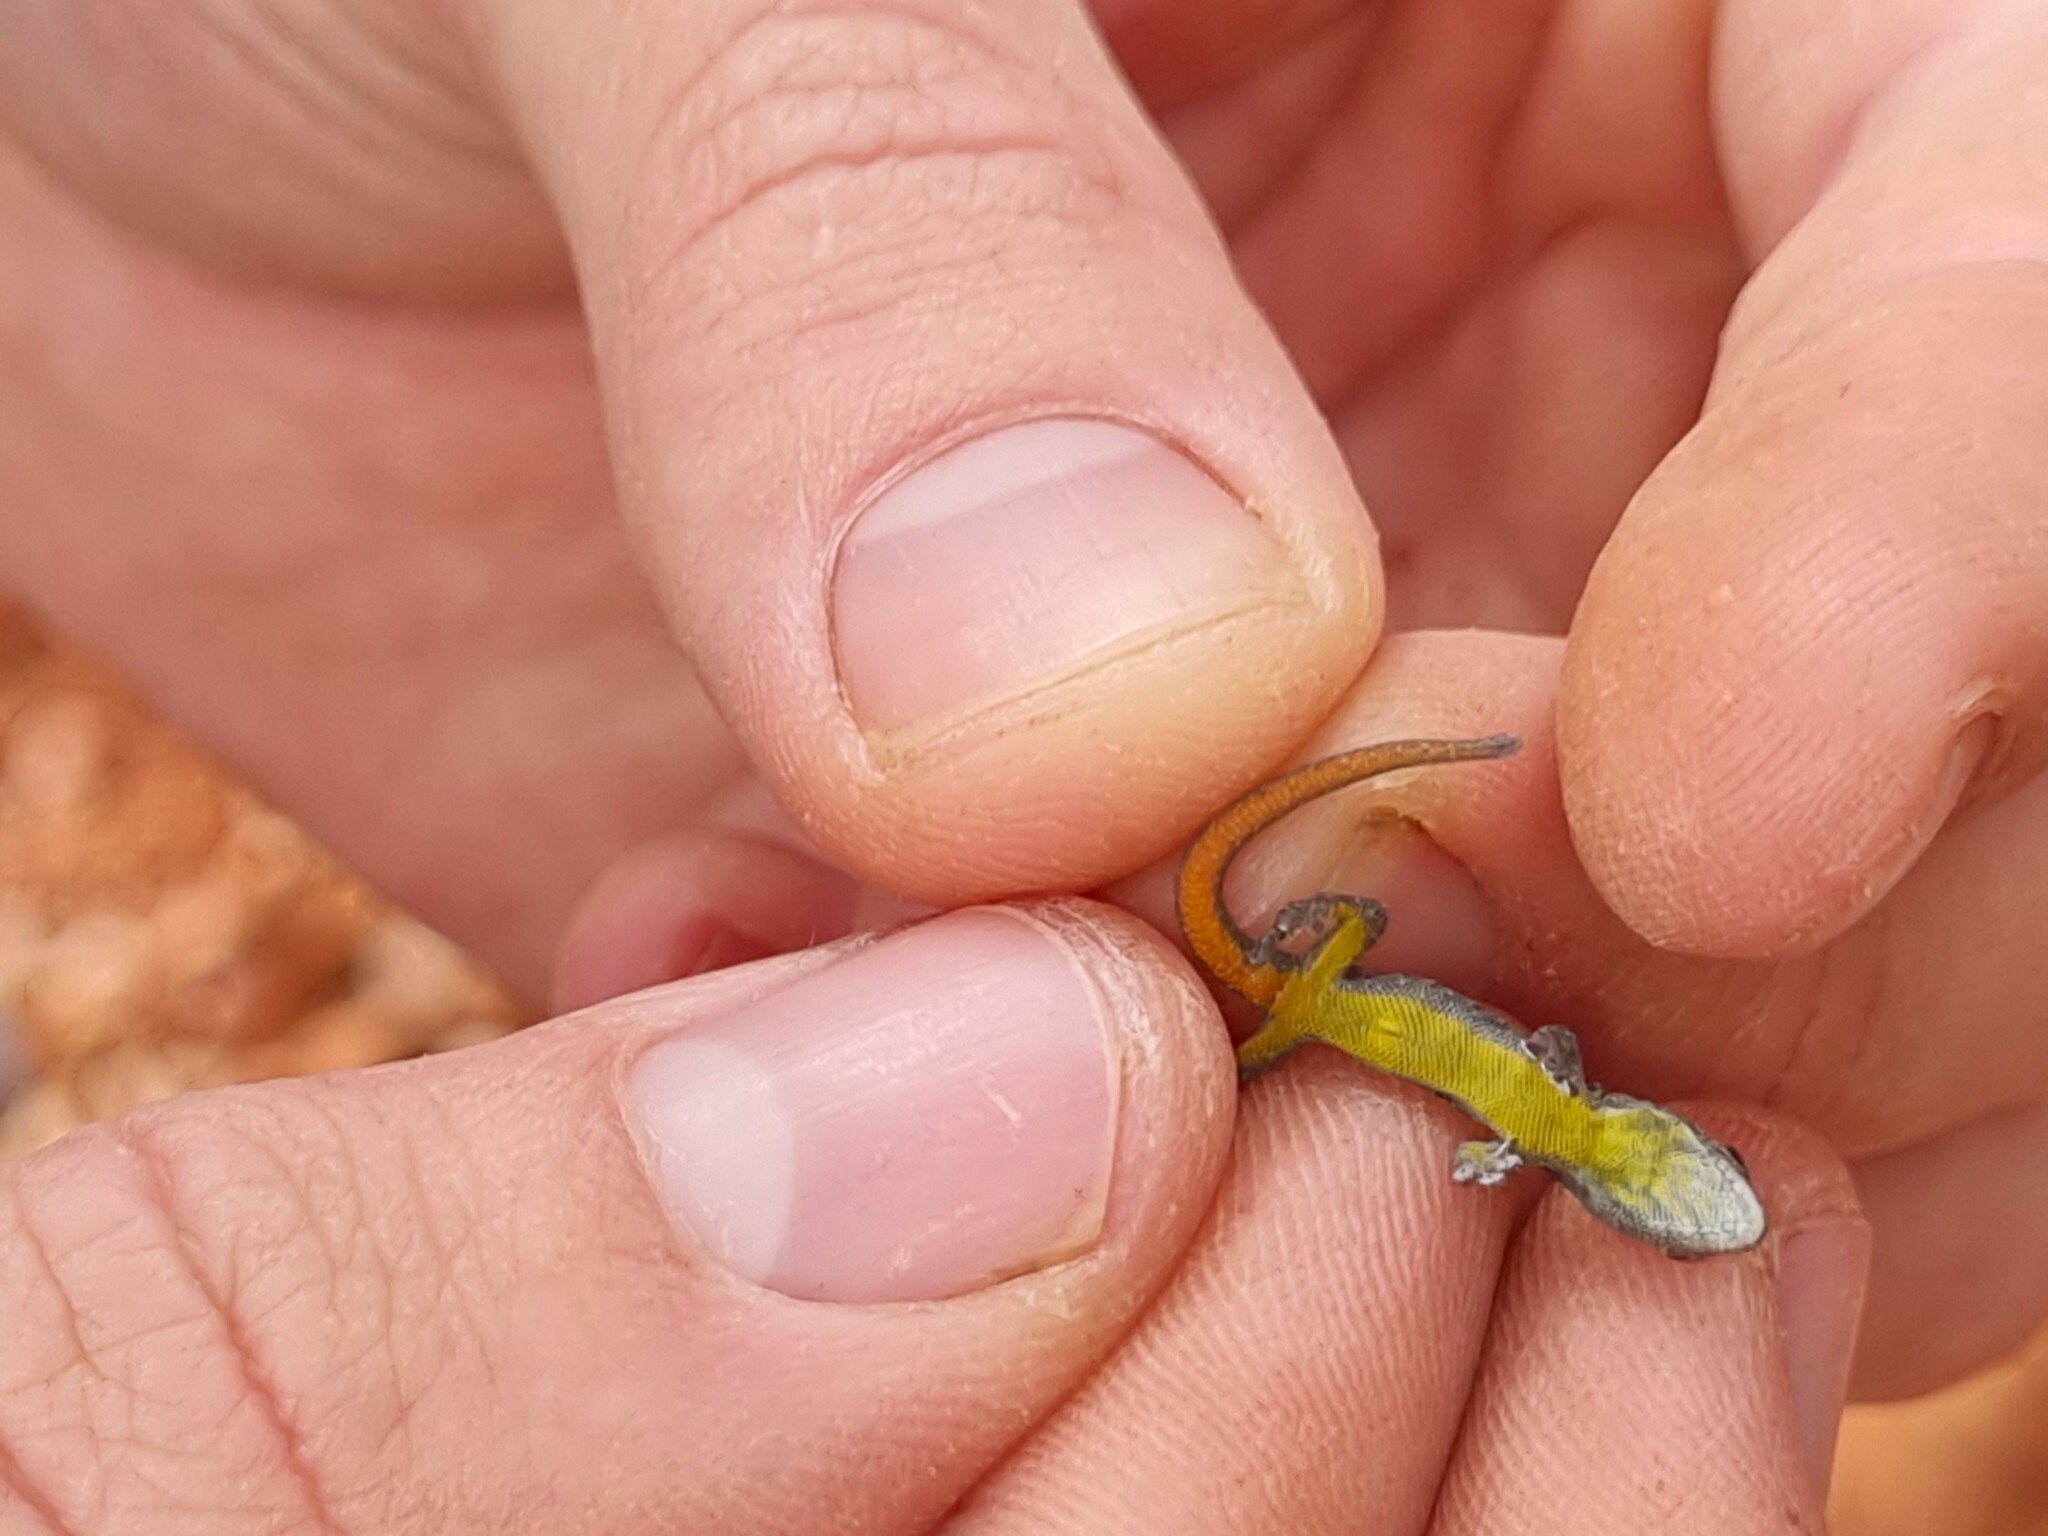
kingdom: Animalia
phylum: Chordata
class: Squamata
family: Gekkonidae
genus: Lygodactylus
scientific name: Lygodactylus angularis
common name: Angulate dwarf gecko
